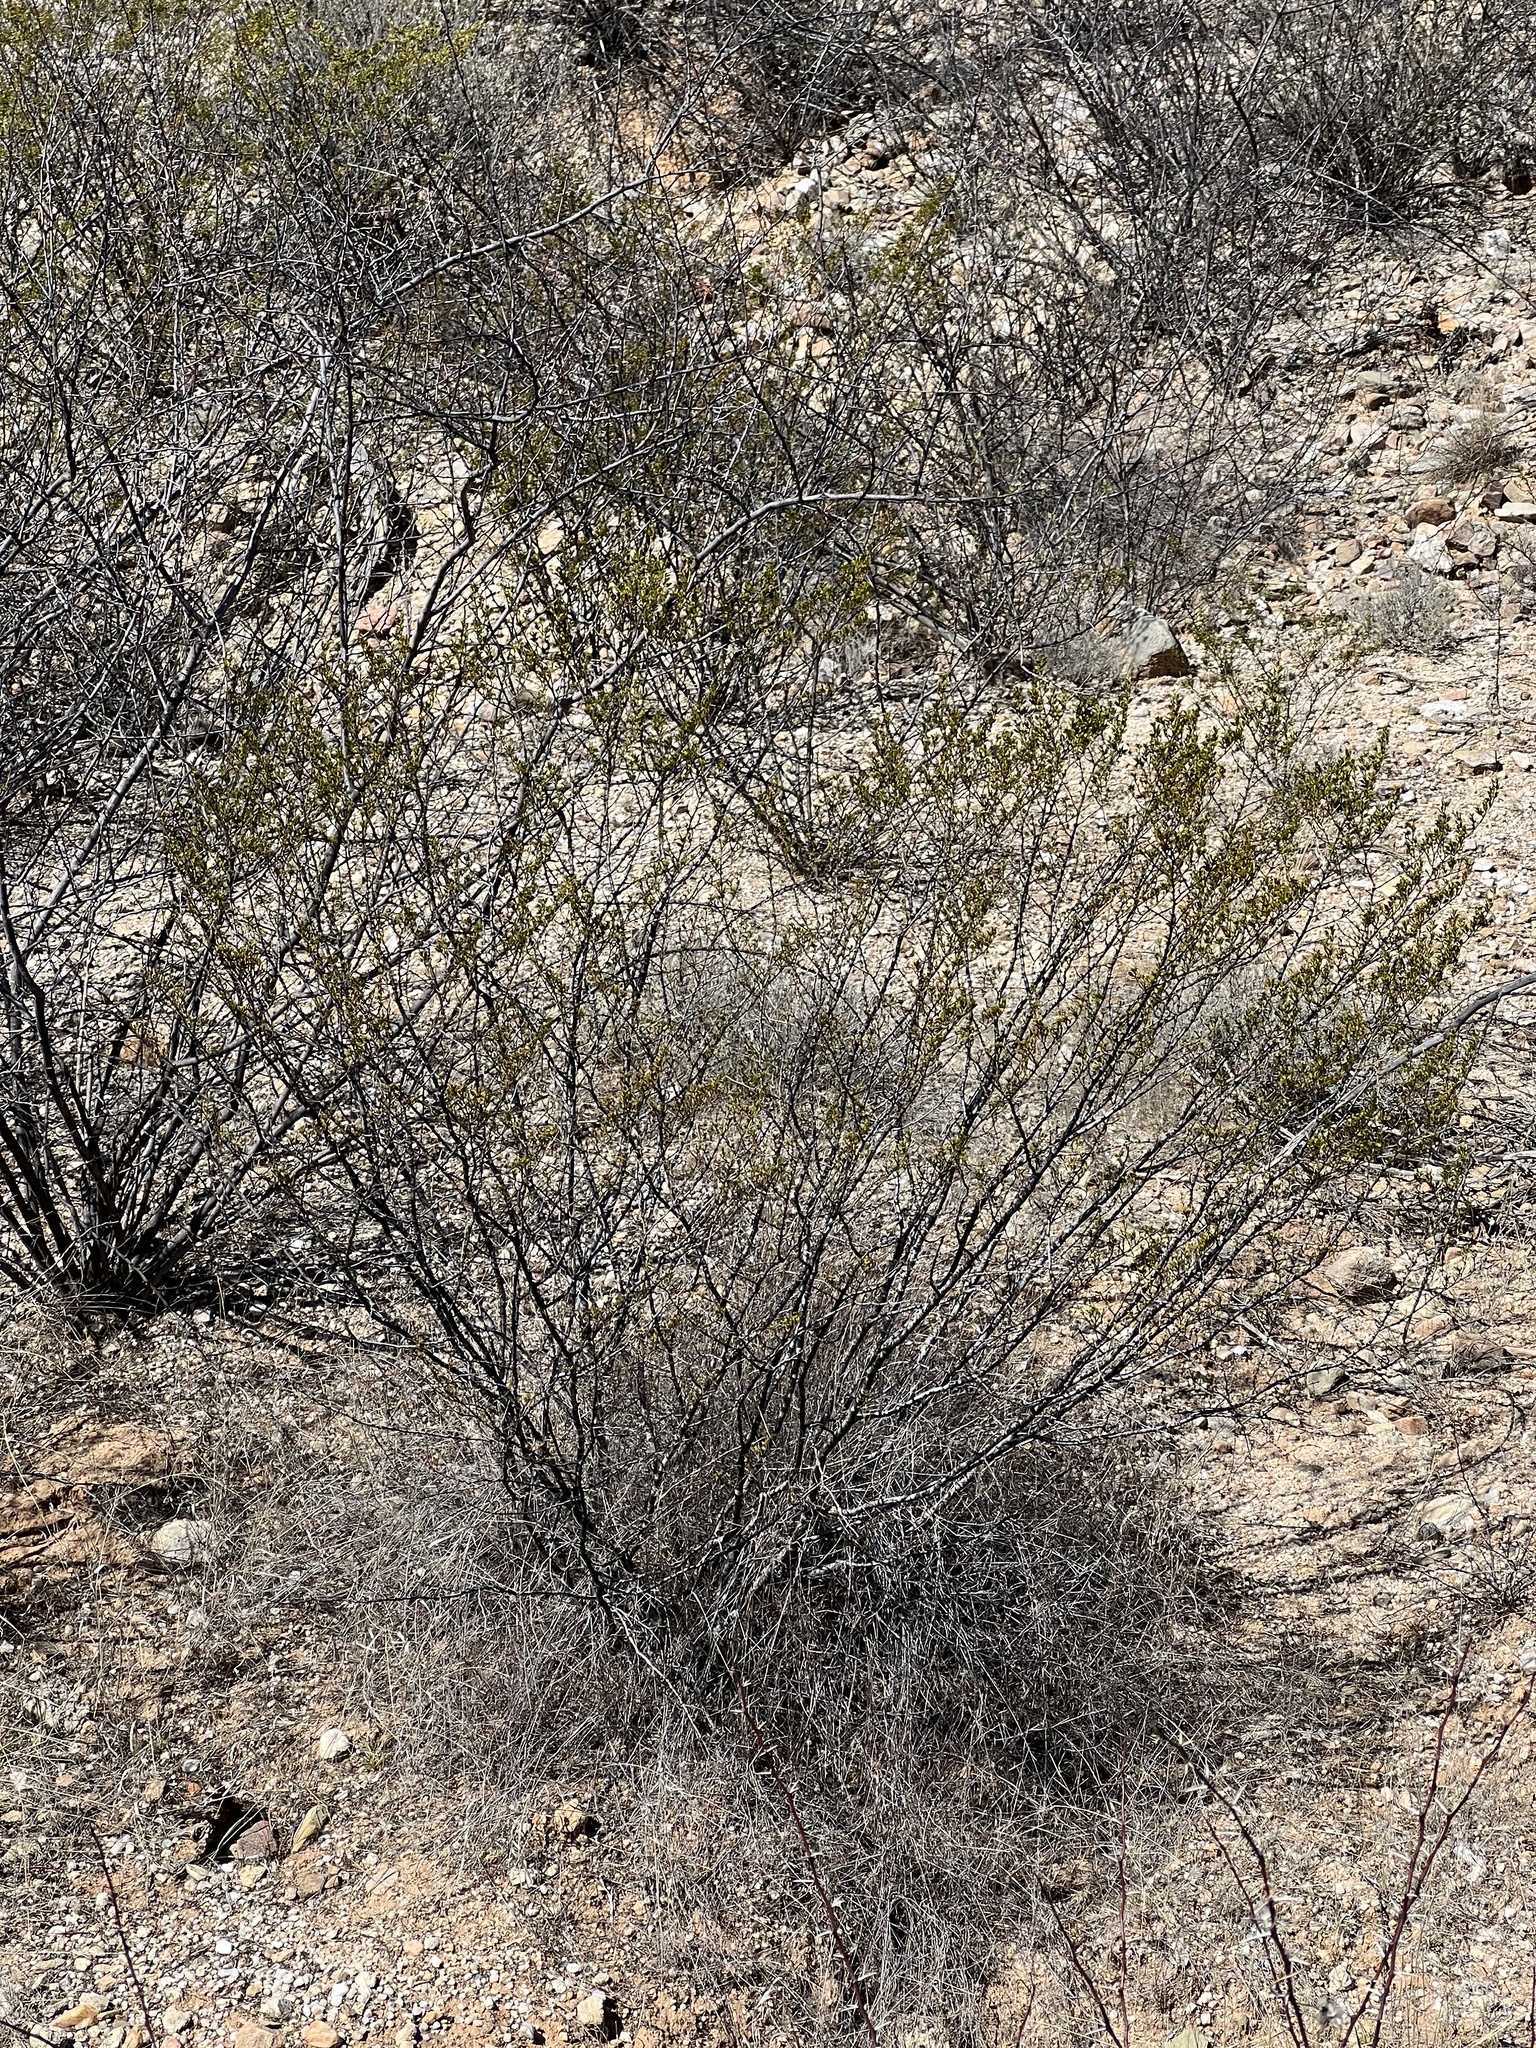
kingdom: Plantae
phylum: Tracheophyta
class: Magnoliopsida
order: Zygophyllales
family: Zygophyllaceae
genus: Larrea
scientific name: Larrea tridentata
